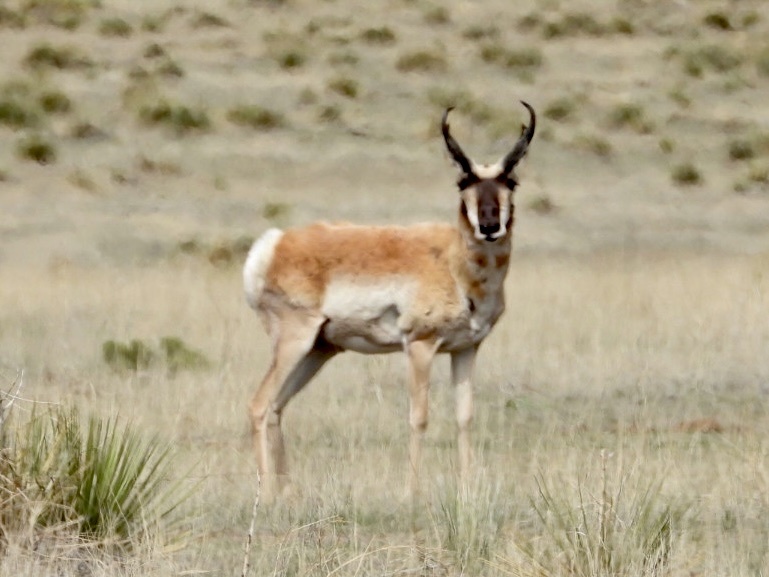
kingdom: Animalia
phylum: Chordata
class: Mammalia
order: Artiodactyla
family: Antilocapridae
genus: Antilocapra
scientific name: Antilocapra americana
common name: Pronghorn
